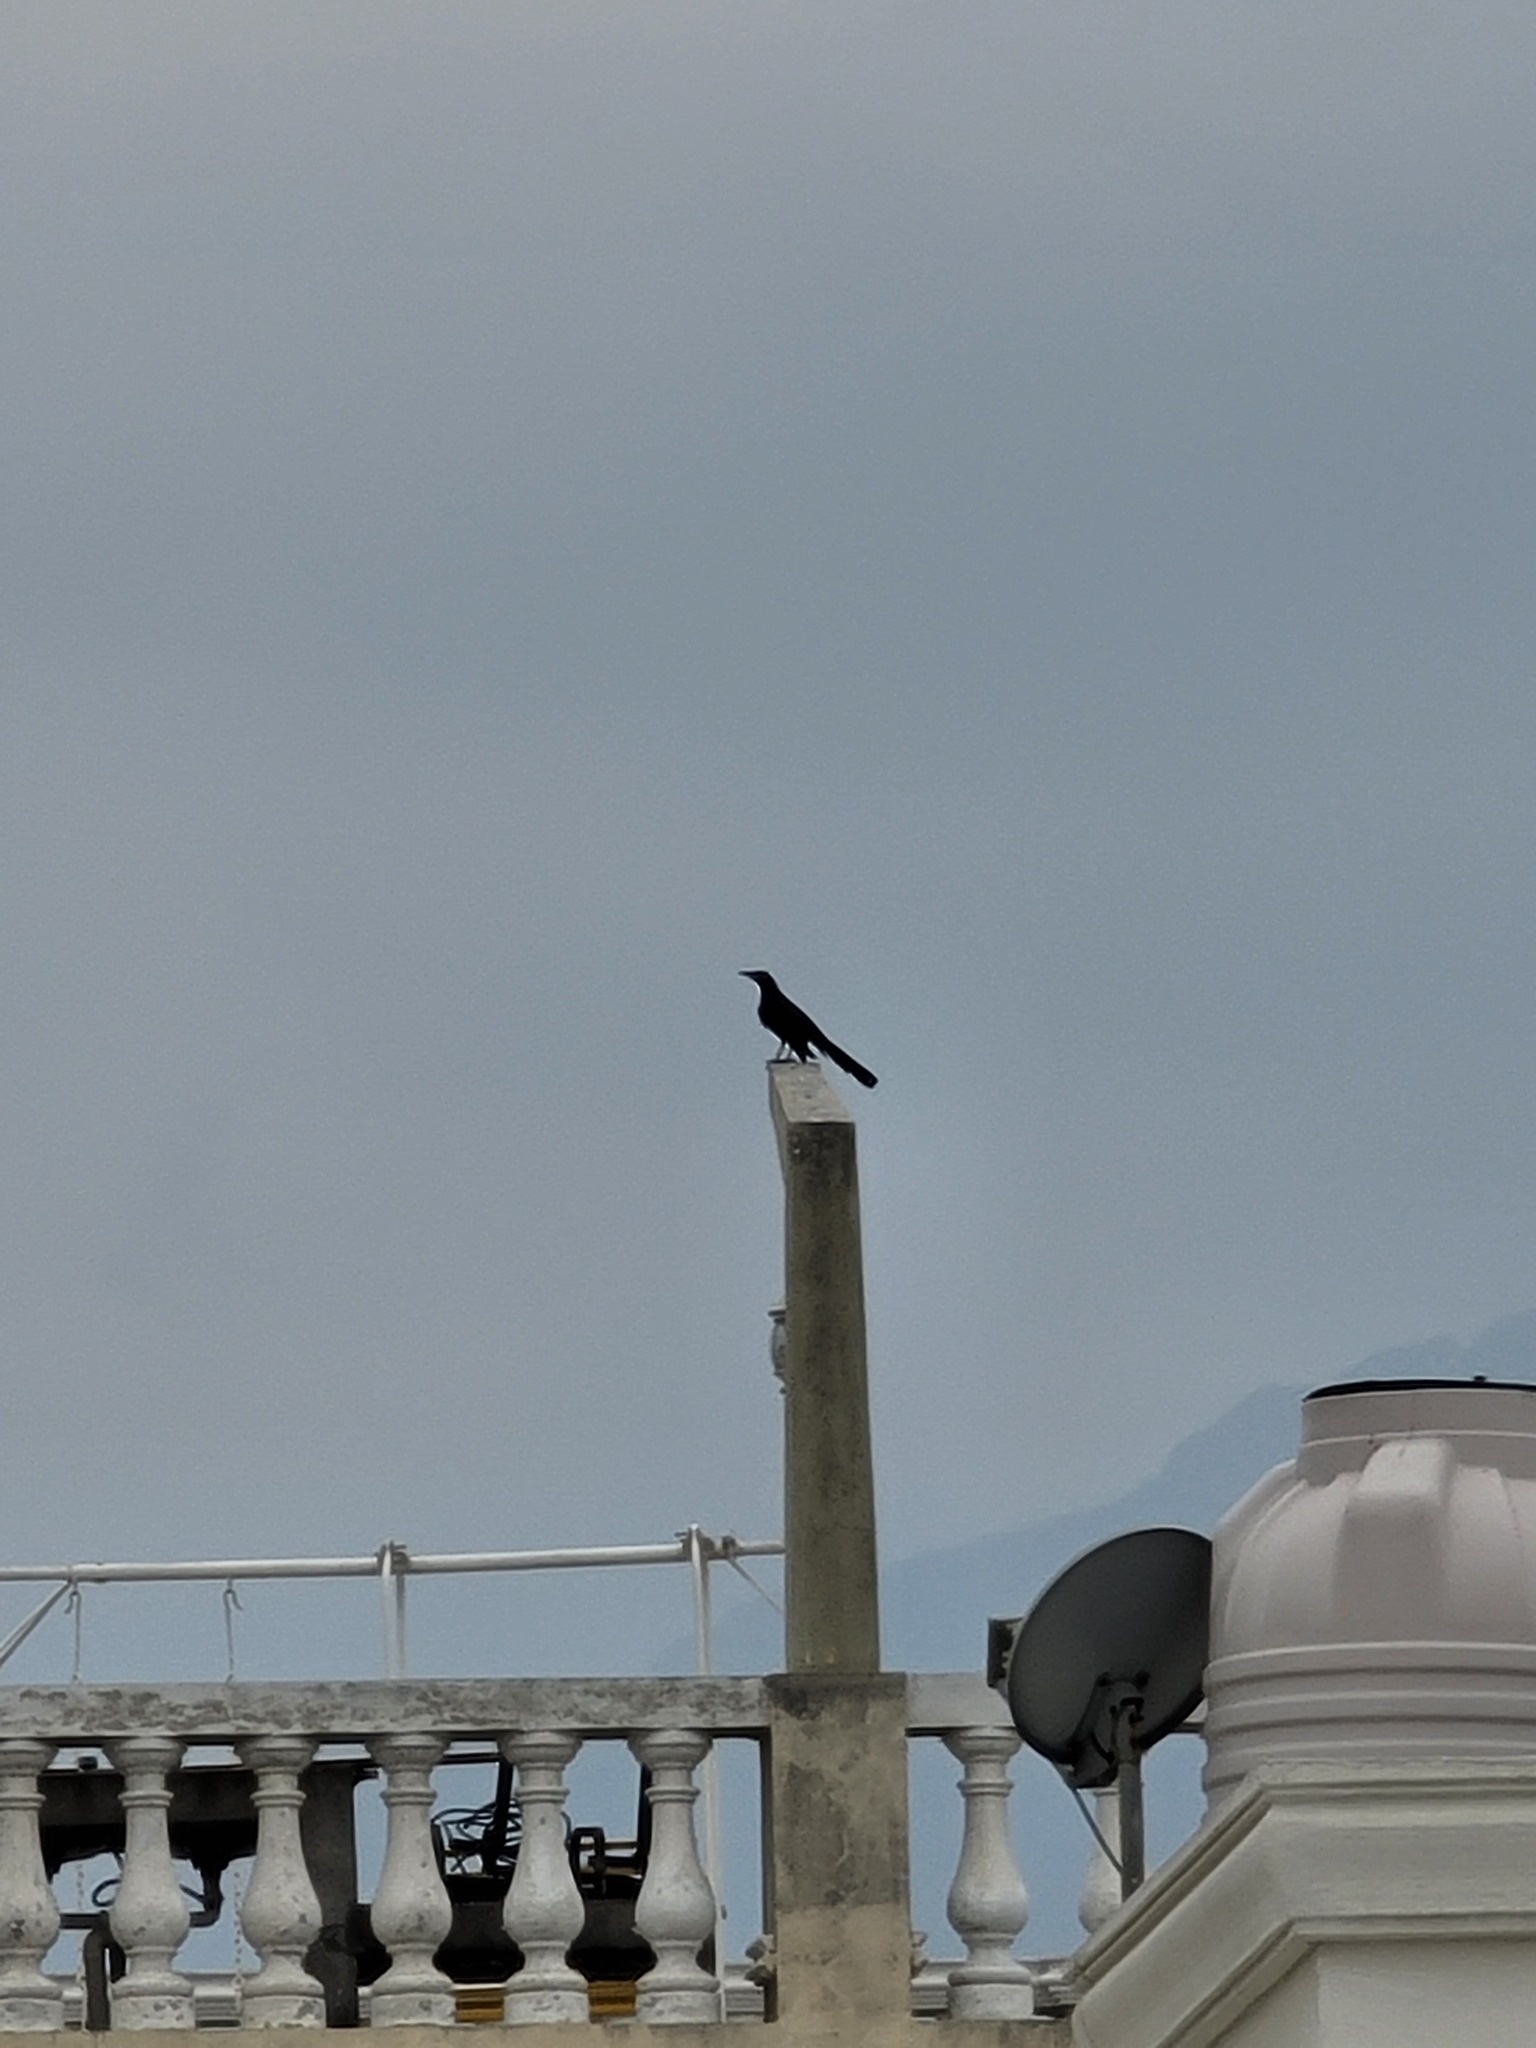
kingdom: Animalia
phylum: Chordata
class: Aves
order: Passeriformes
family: Icteridae
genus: Quiscalus
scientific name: Quiscalus mexicanus
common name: Great-tailed grackle
